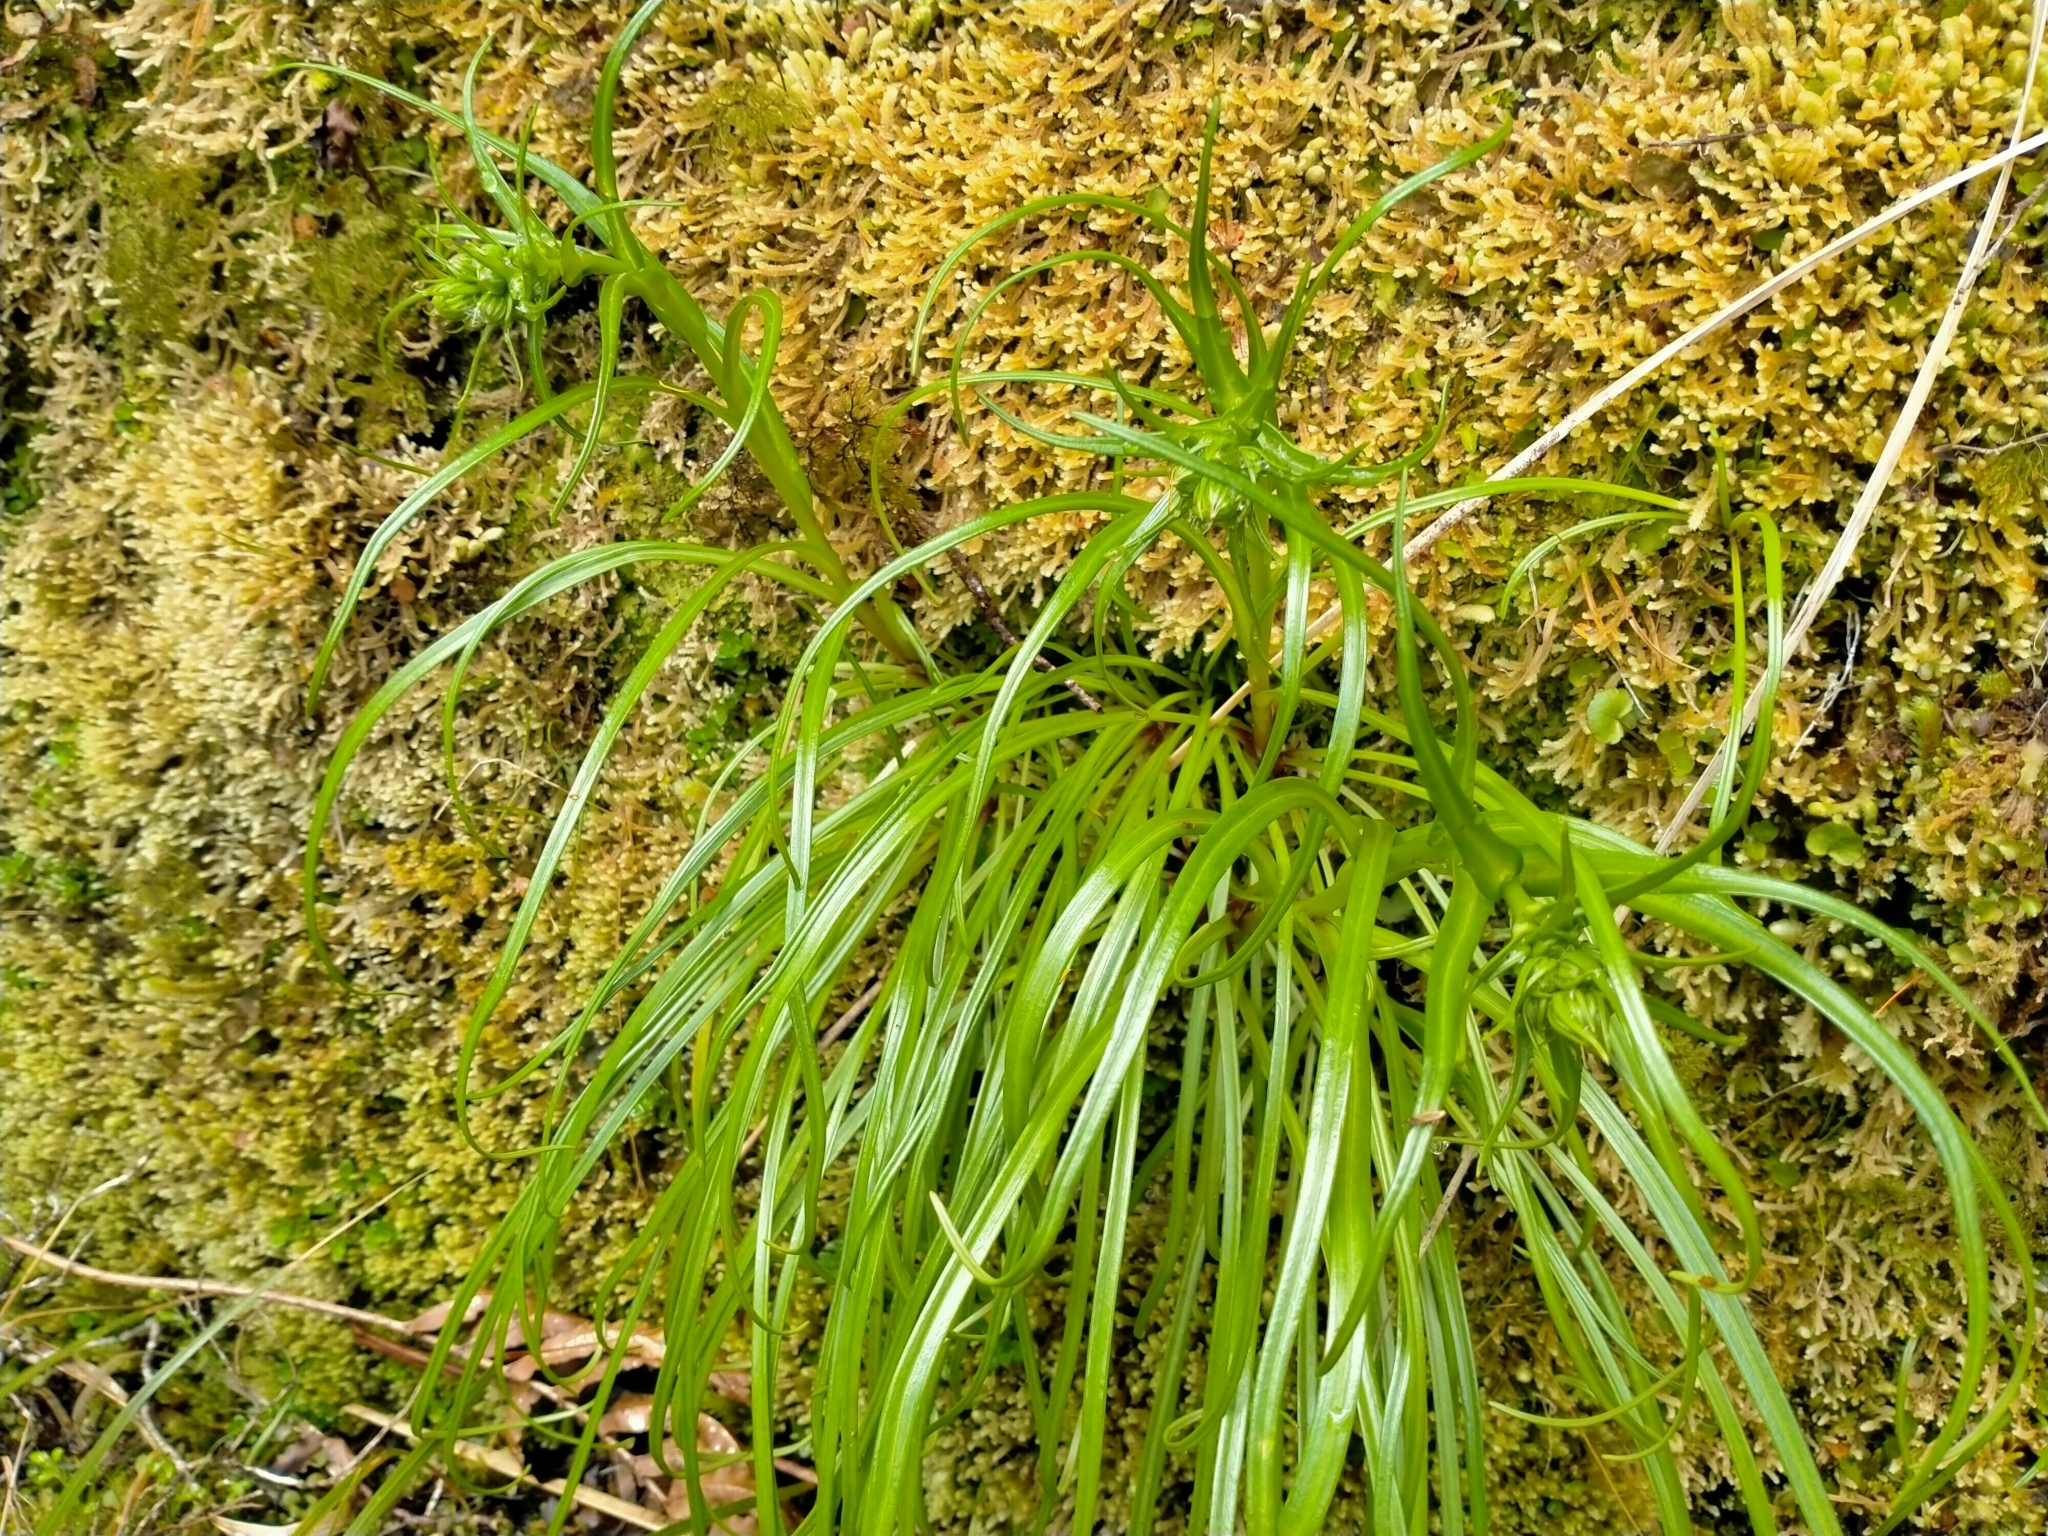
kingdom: Plantae
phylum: Tracheophyta
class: Magnoliopsida
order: Asterales
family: Asteraceae
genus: Dolichoglottis
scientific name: Dolichoglottis lyallii
